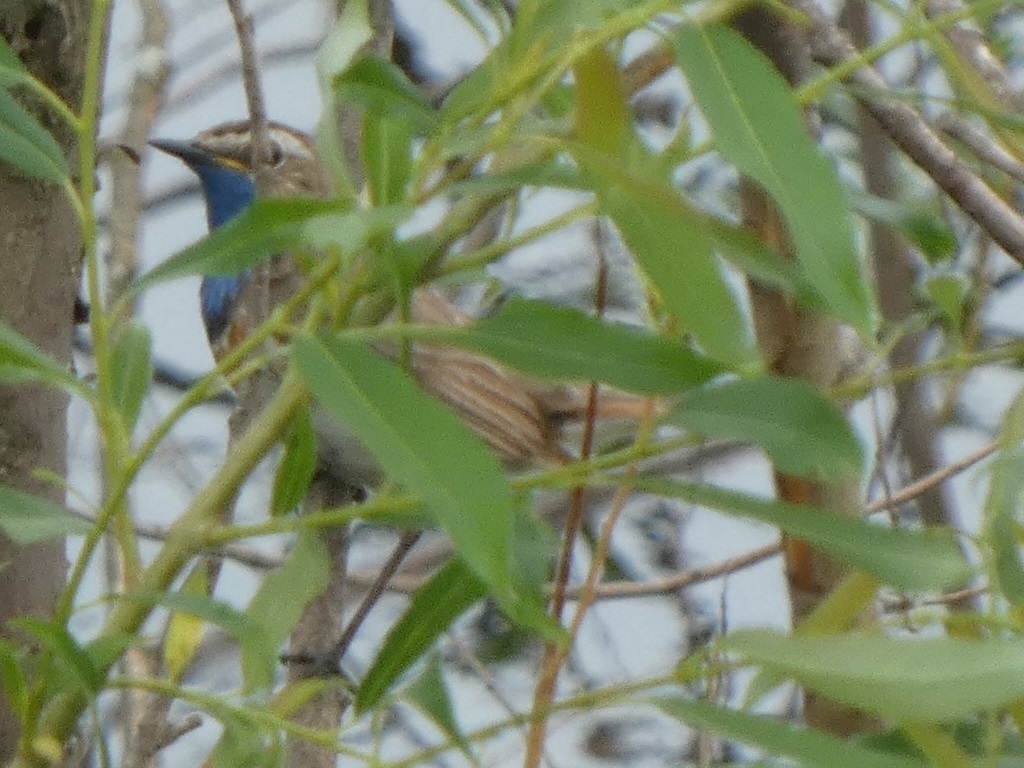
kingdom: Animalia
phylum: Chordata
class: Aves
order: Passeriformes
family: Muscicapidae
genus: Luscinia
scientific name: Luscinia svecica
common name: Bluethroat
